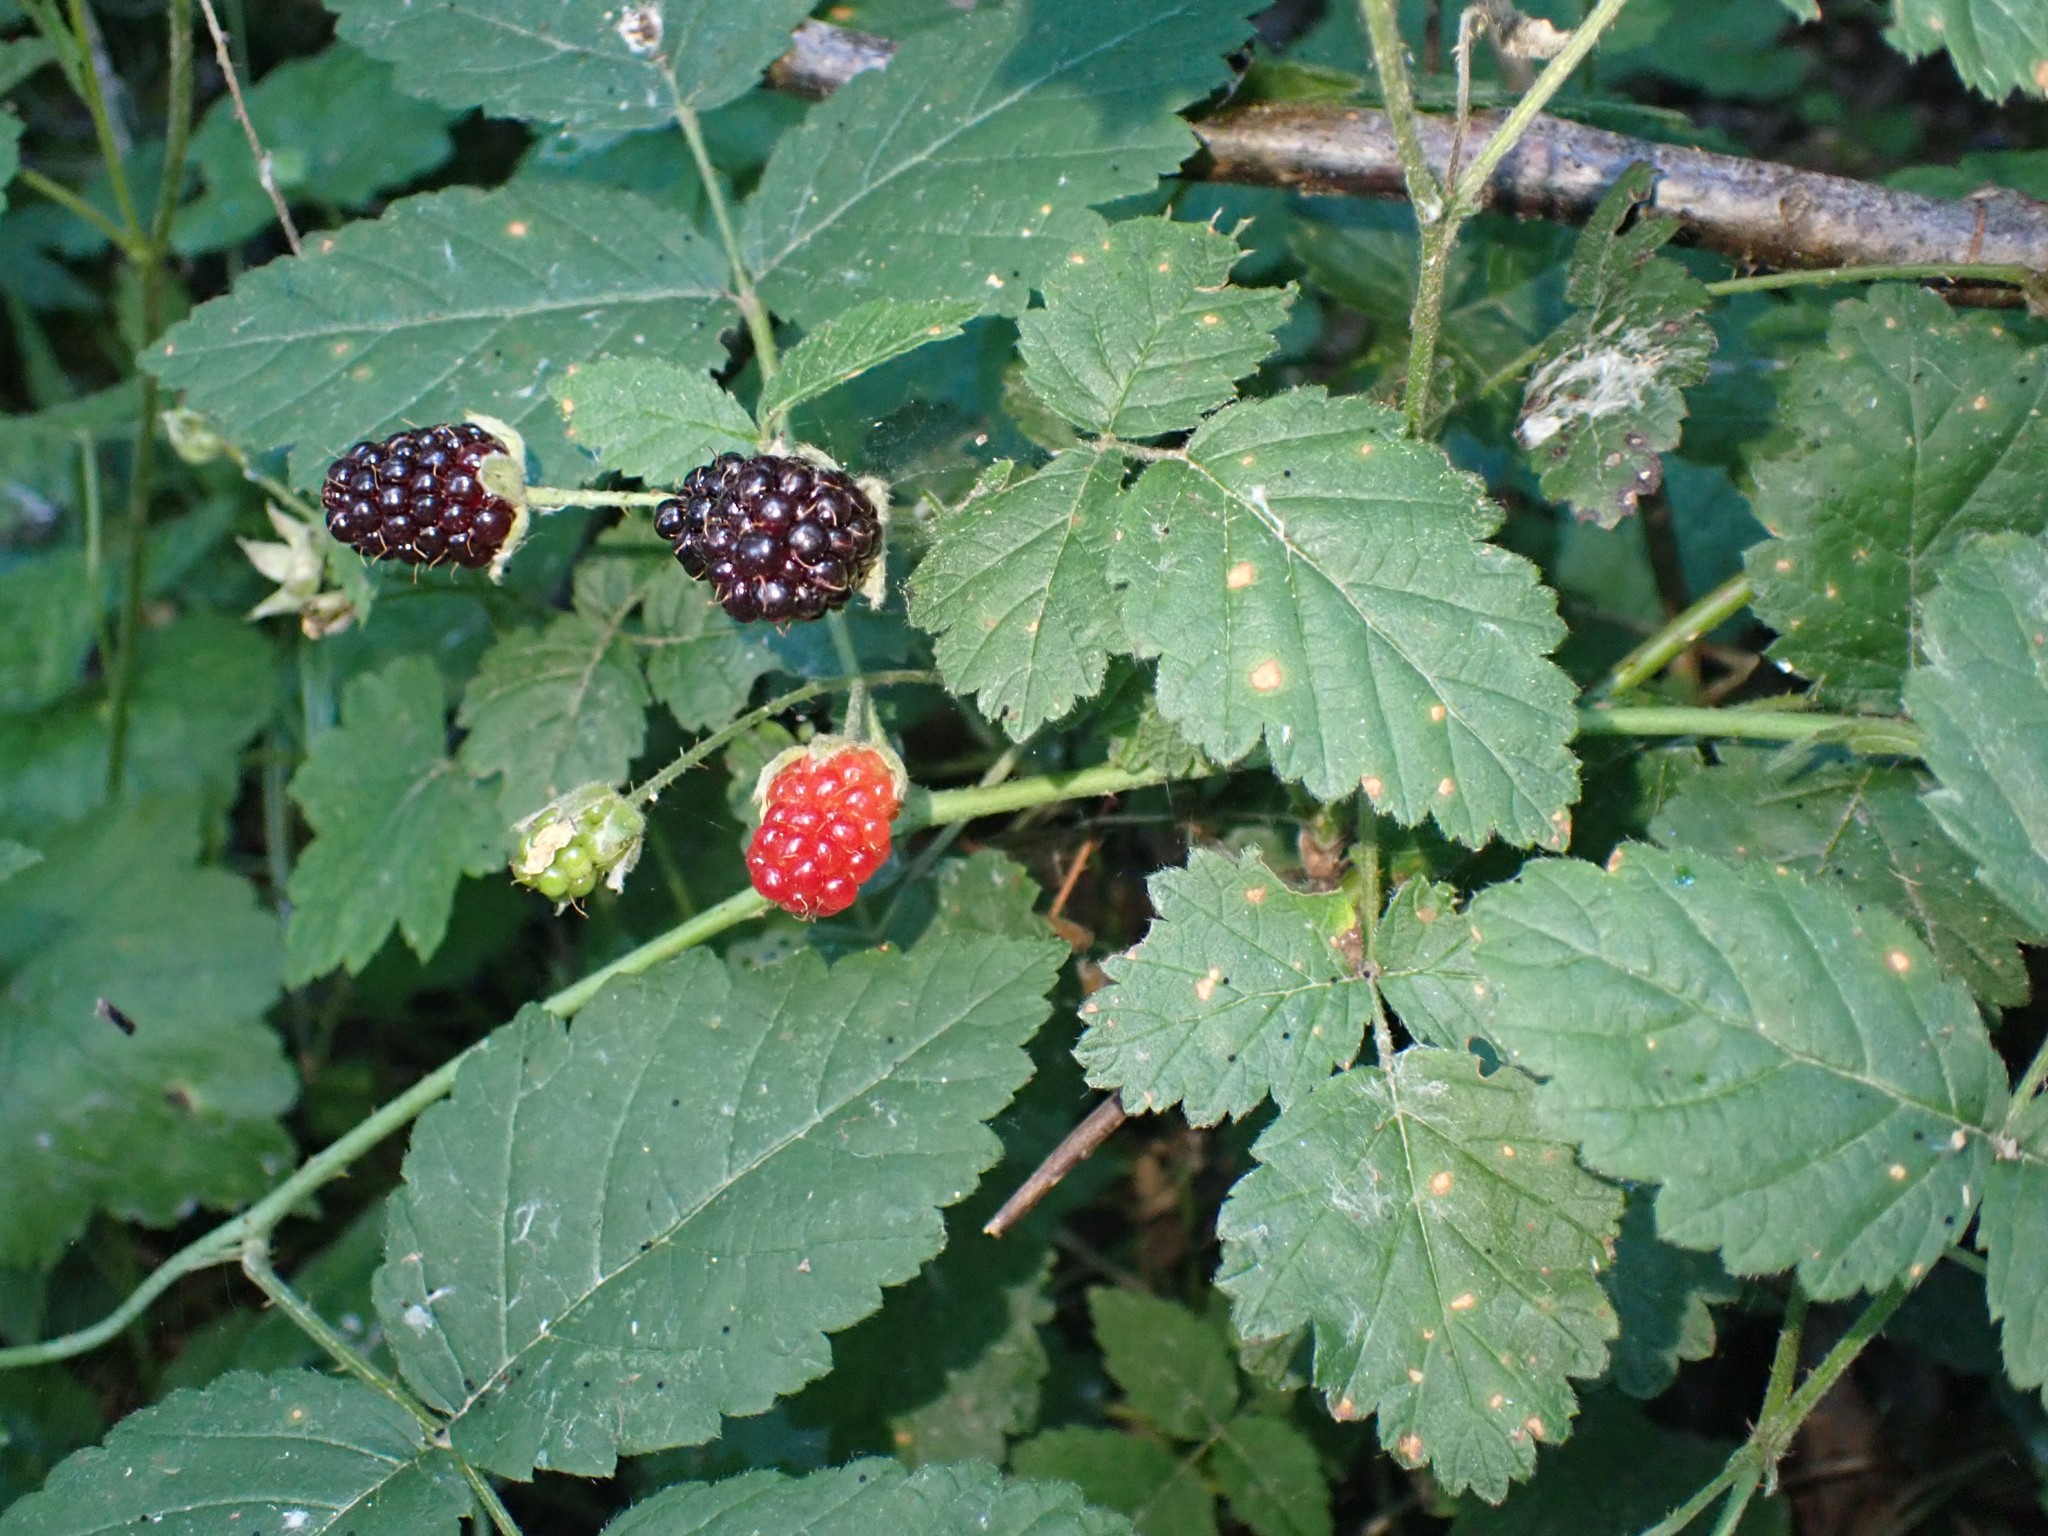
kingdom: Plantae
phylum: Tracheophyta
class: Magnoliopsida
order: Rosales
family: Rosaceae
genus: Rubus
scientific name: Rubus ursinus
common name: Pacific blackberry
